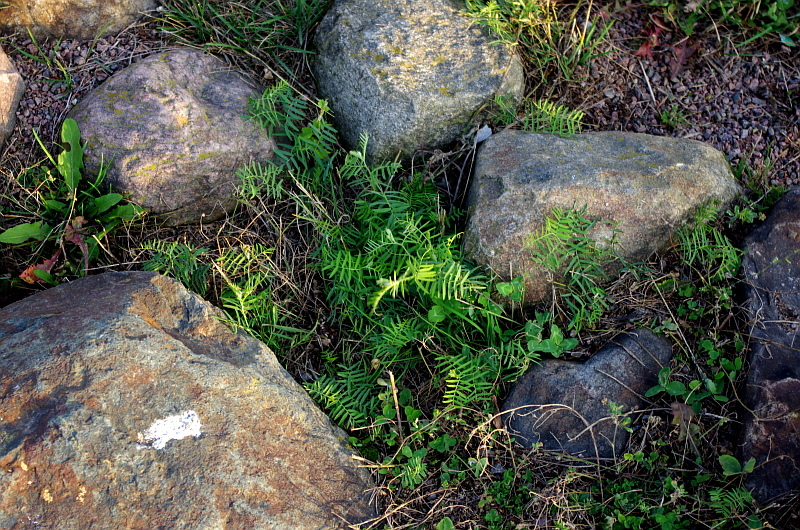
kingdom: Plantae
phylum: Tracheophyta
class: Magnoliopsida
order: Fabales
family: Fabaceae
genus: Vicia
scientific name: Vicia cracca
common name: Bird vetch
